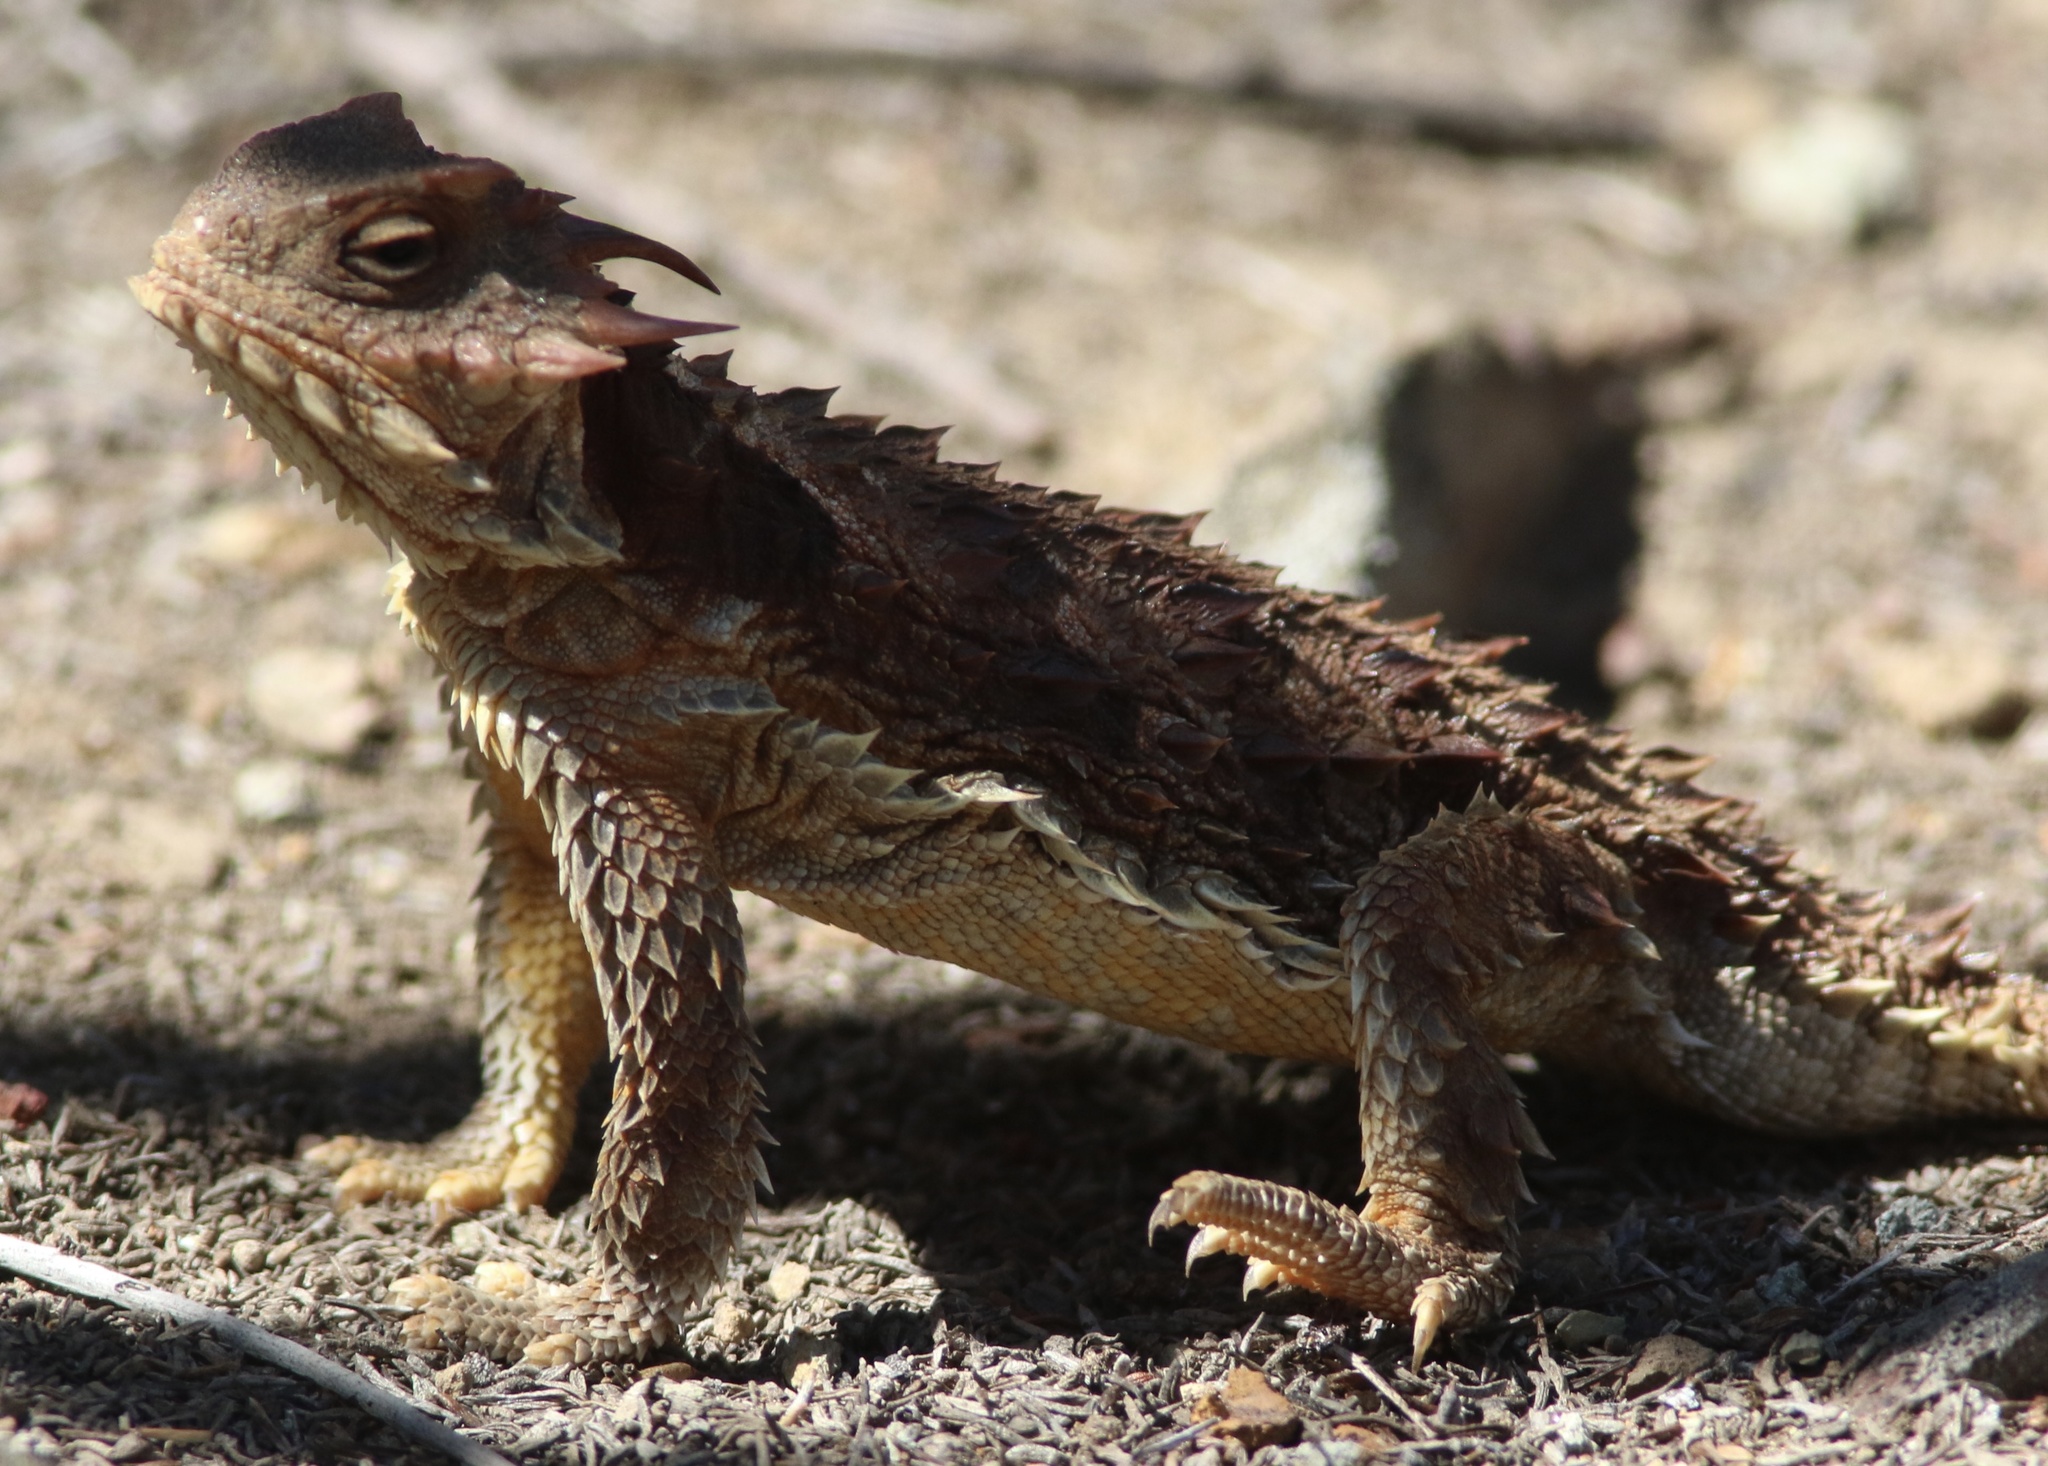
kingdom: Animalia
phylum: Chordata
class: Squamata
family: Phrynosomatidae
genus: Phrynosoma
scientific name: Phrynosoma blainvillii
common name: San diego horned lizard
